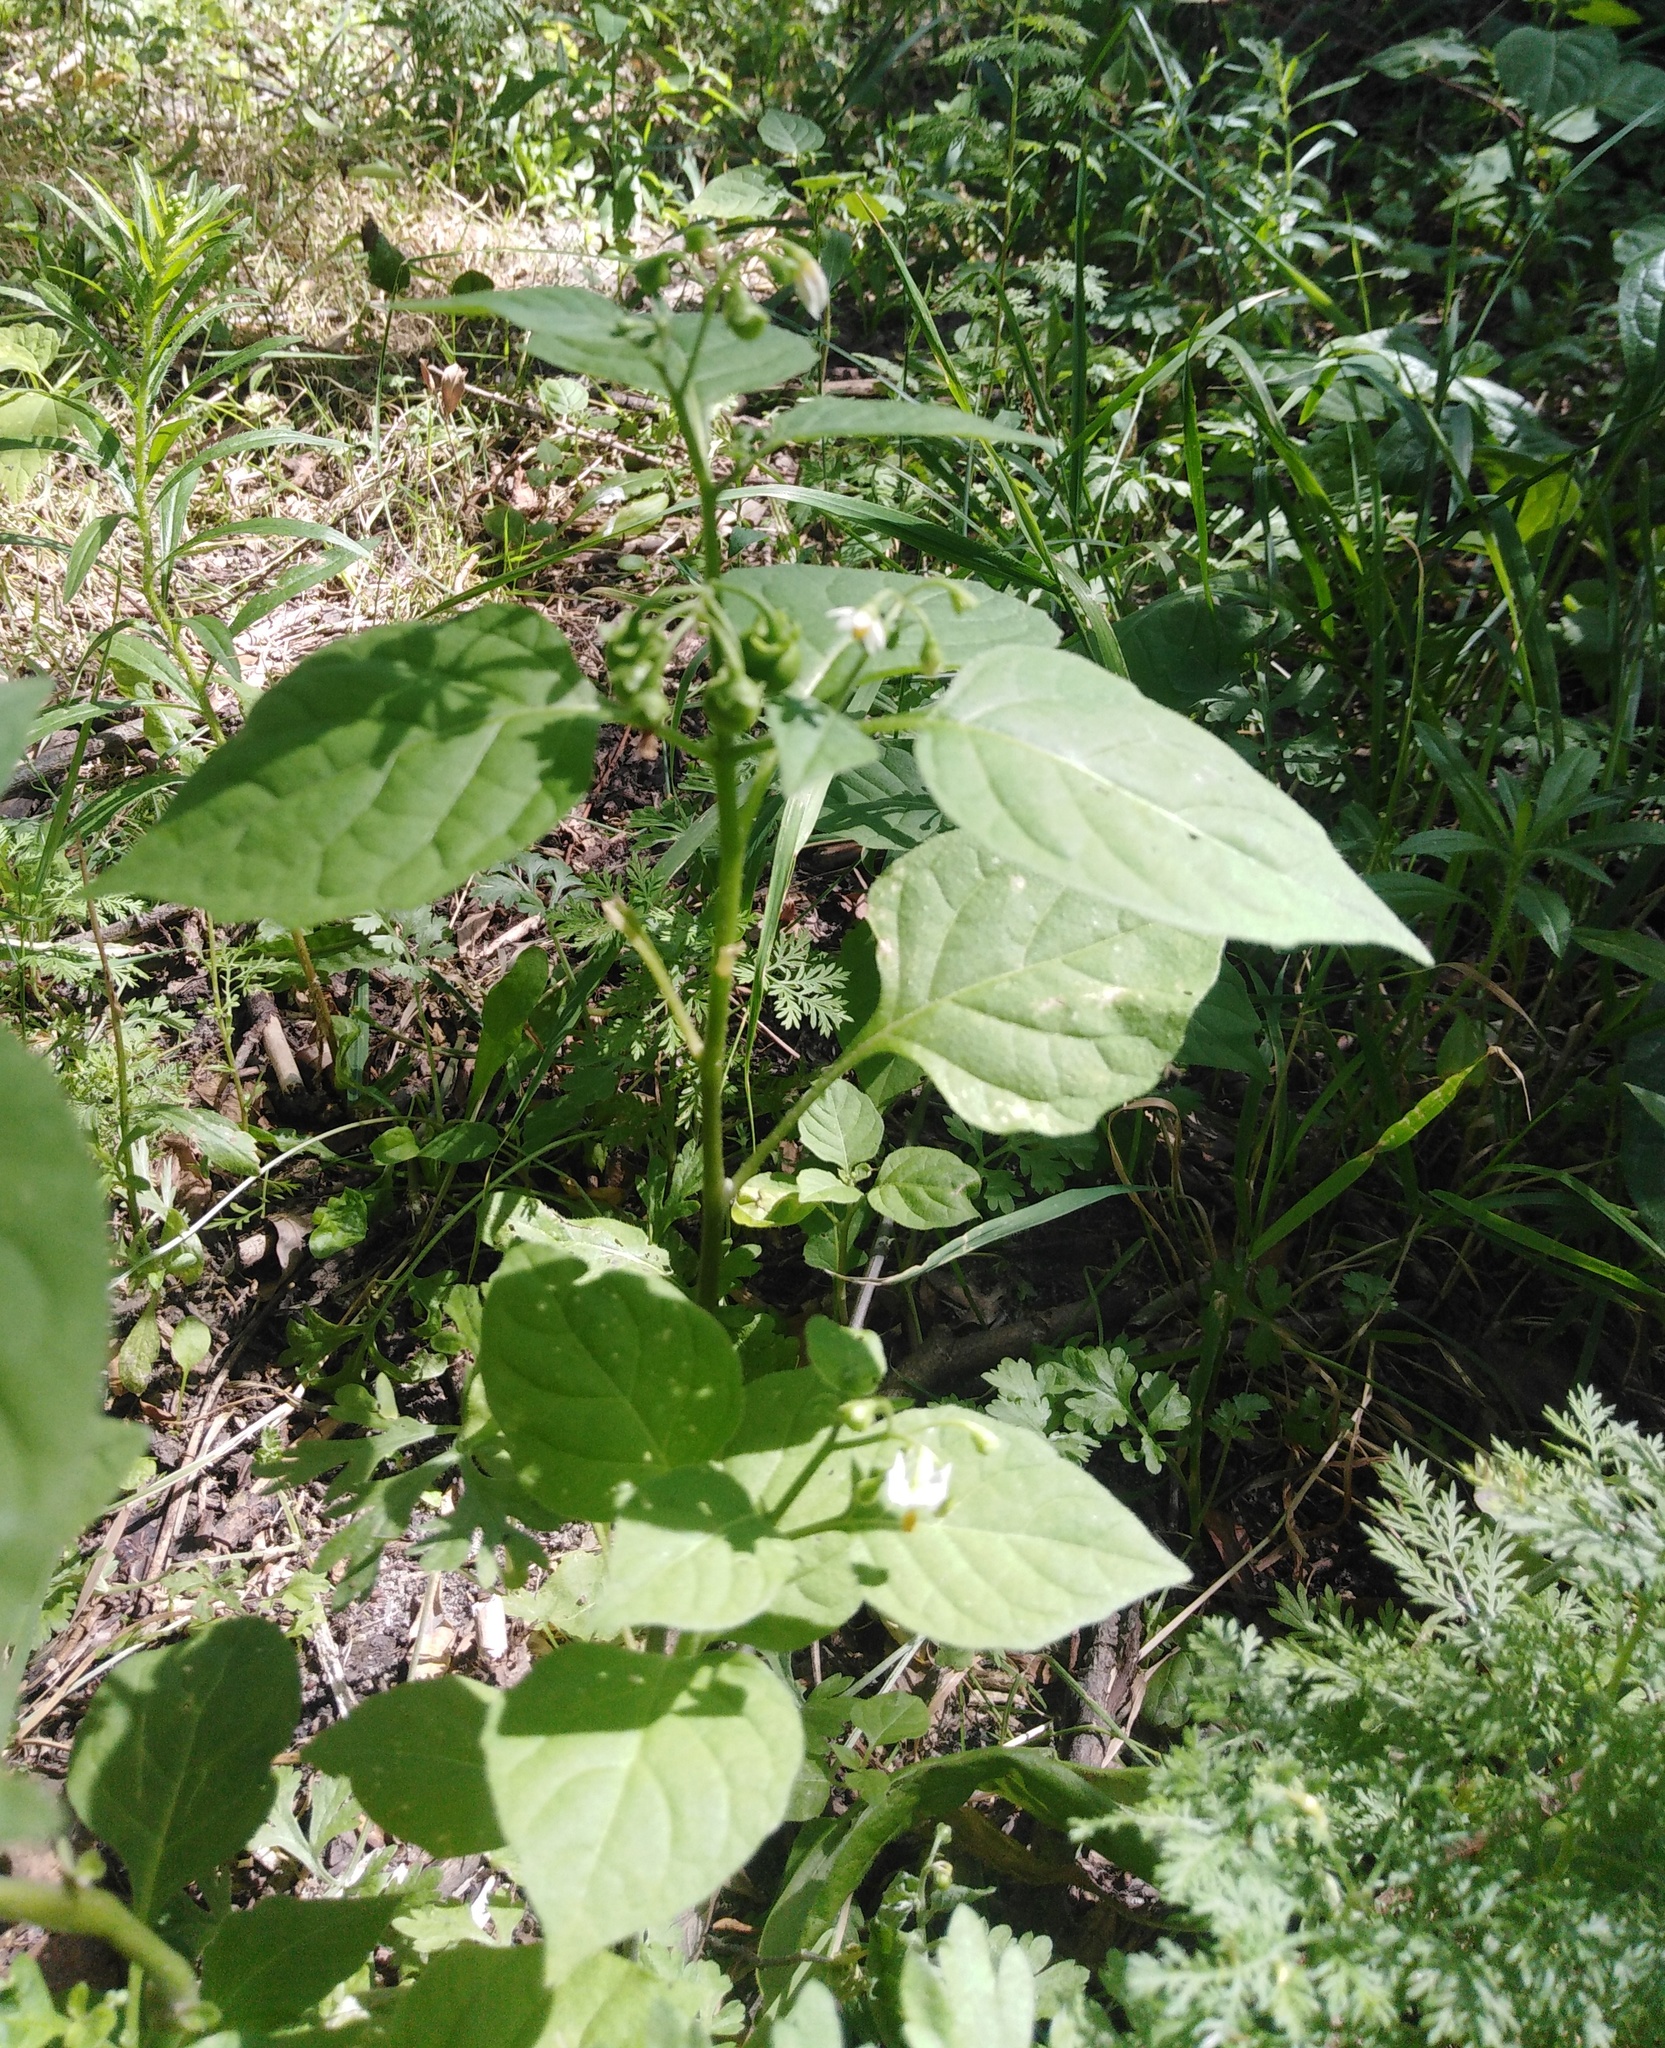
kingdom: Plantae
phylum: Tracheophyta
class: Magnoliopsida
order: Solanales
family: Solanaceae
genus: Solanum
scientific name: Solanum nigrum
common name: Black nightshade
